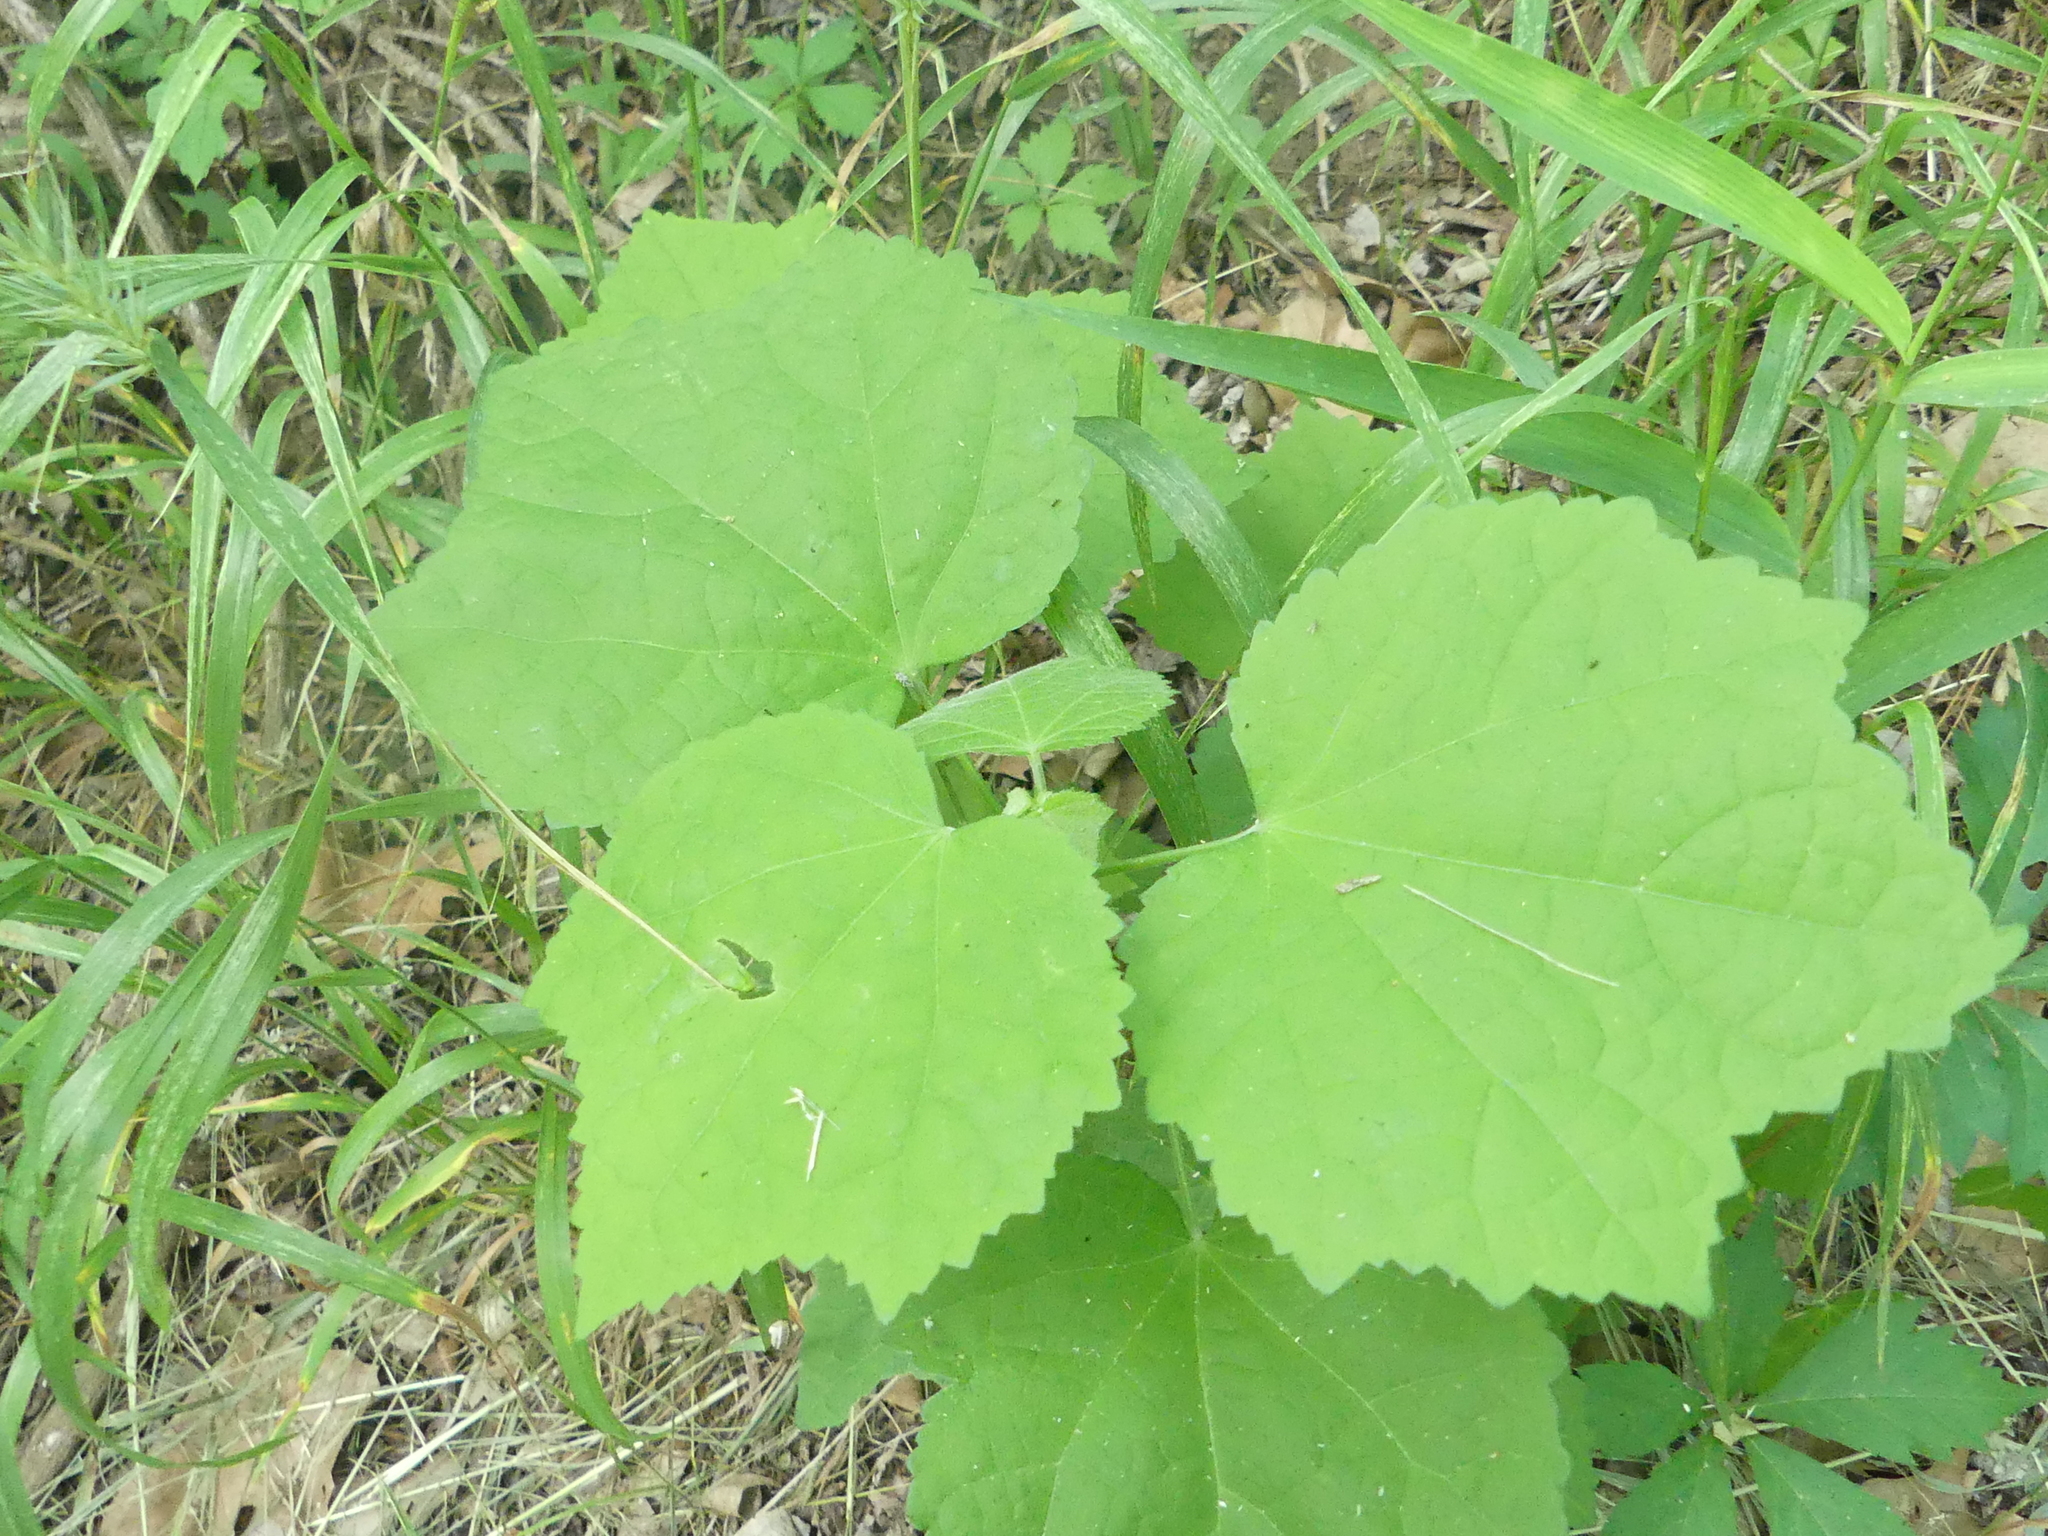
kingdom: Plantae
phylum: Tracheophyta
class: Magnoliopsida
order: Malvales
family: Malvaceae
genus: Malvaviscus
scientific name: Malvaviscus arboreus
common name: Wax mallow
